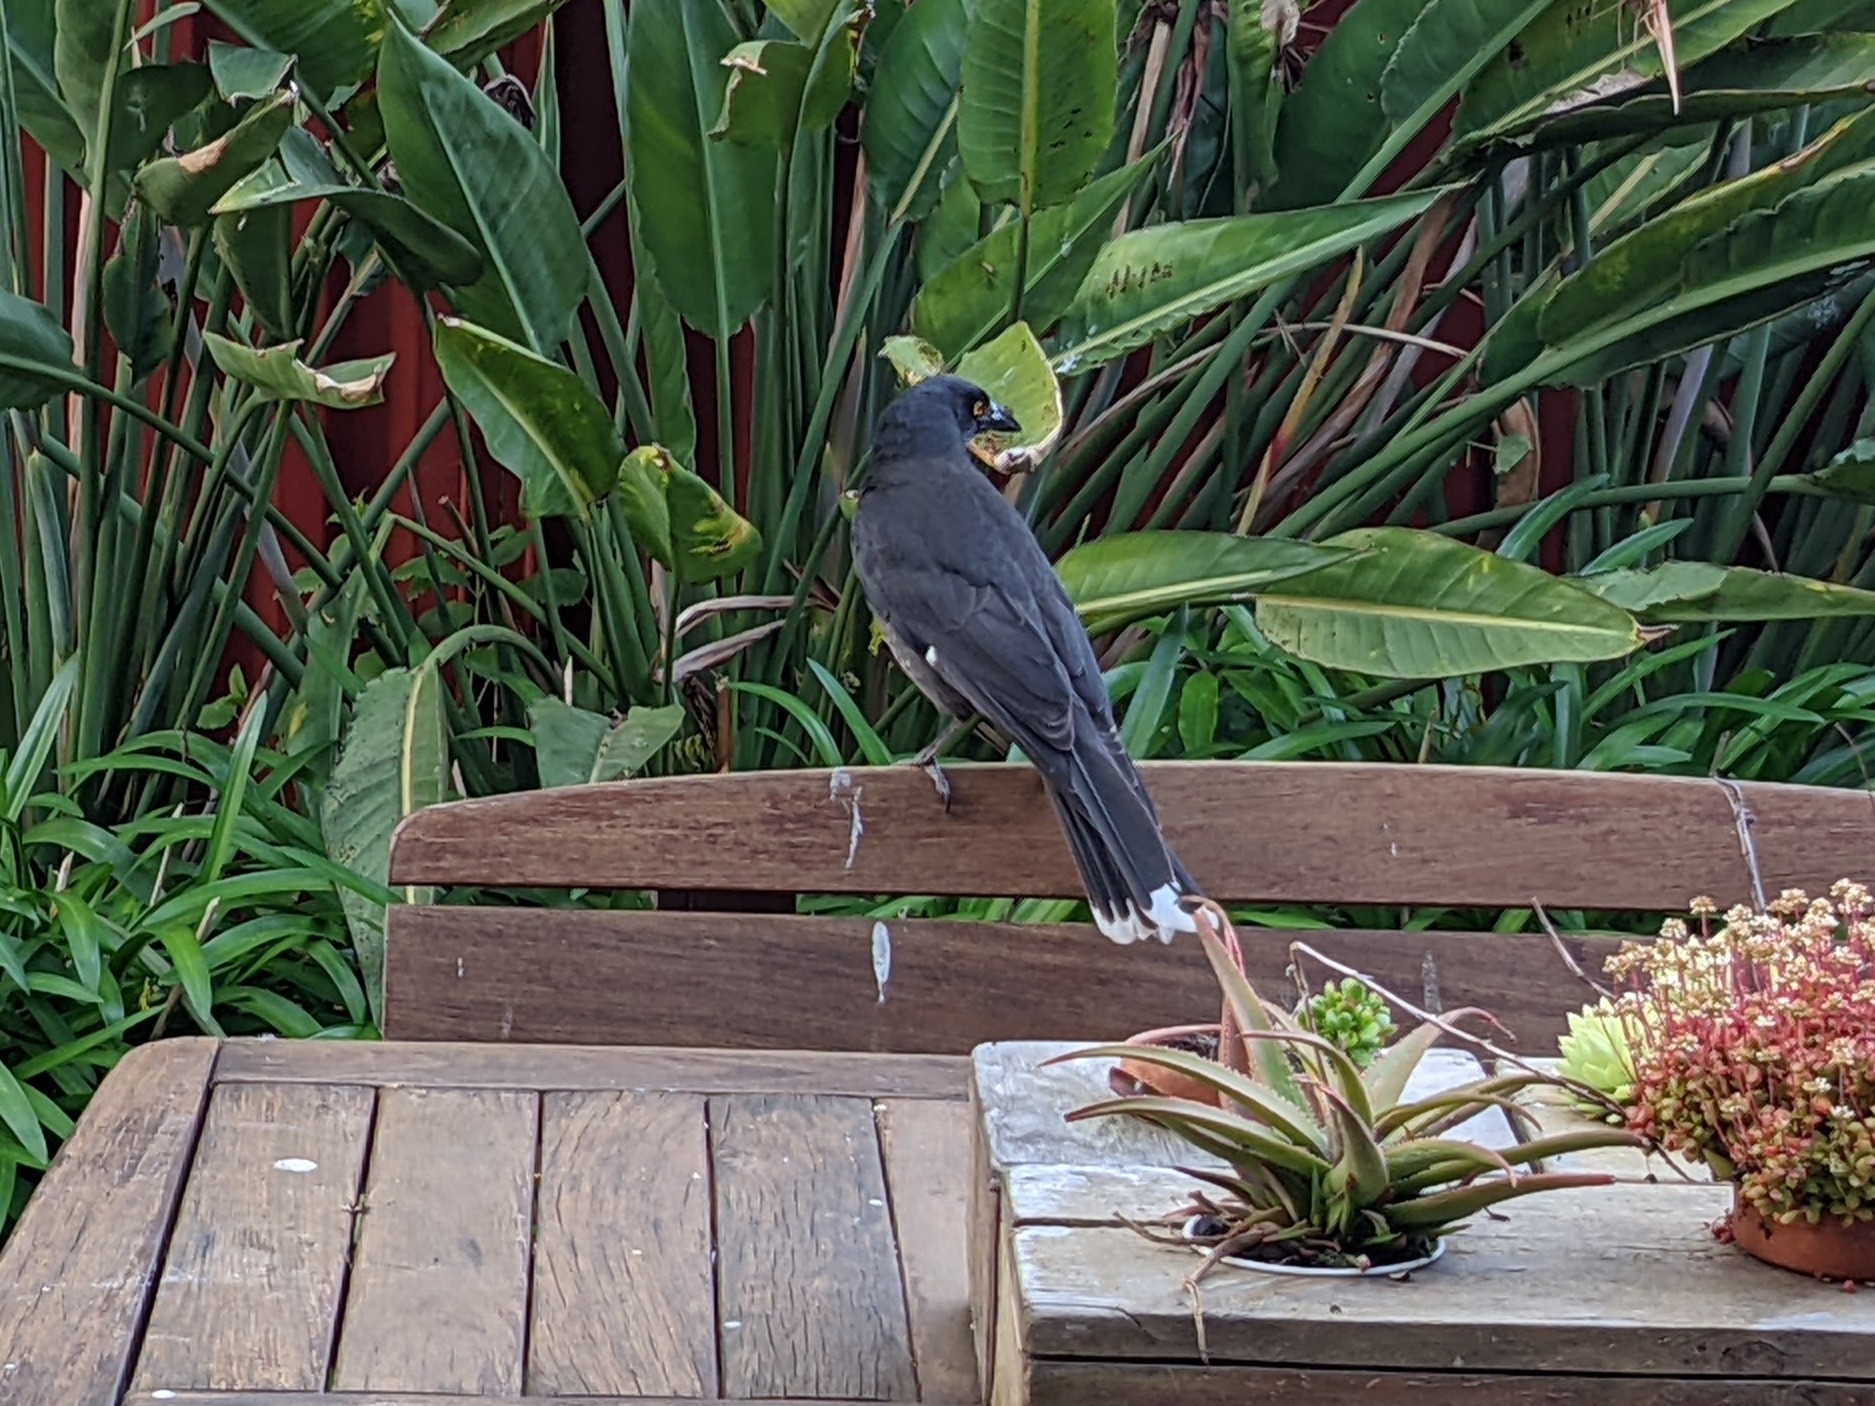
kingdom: Animalia
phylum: Chordata
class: Aves
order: Passeriformes
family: Cracticidae
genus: Strepera
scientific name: Strepera graculina
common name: Pied currawong
